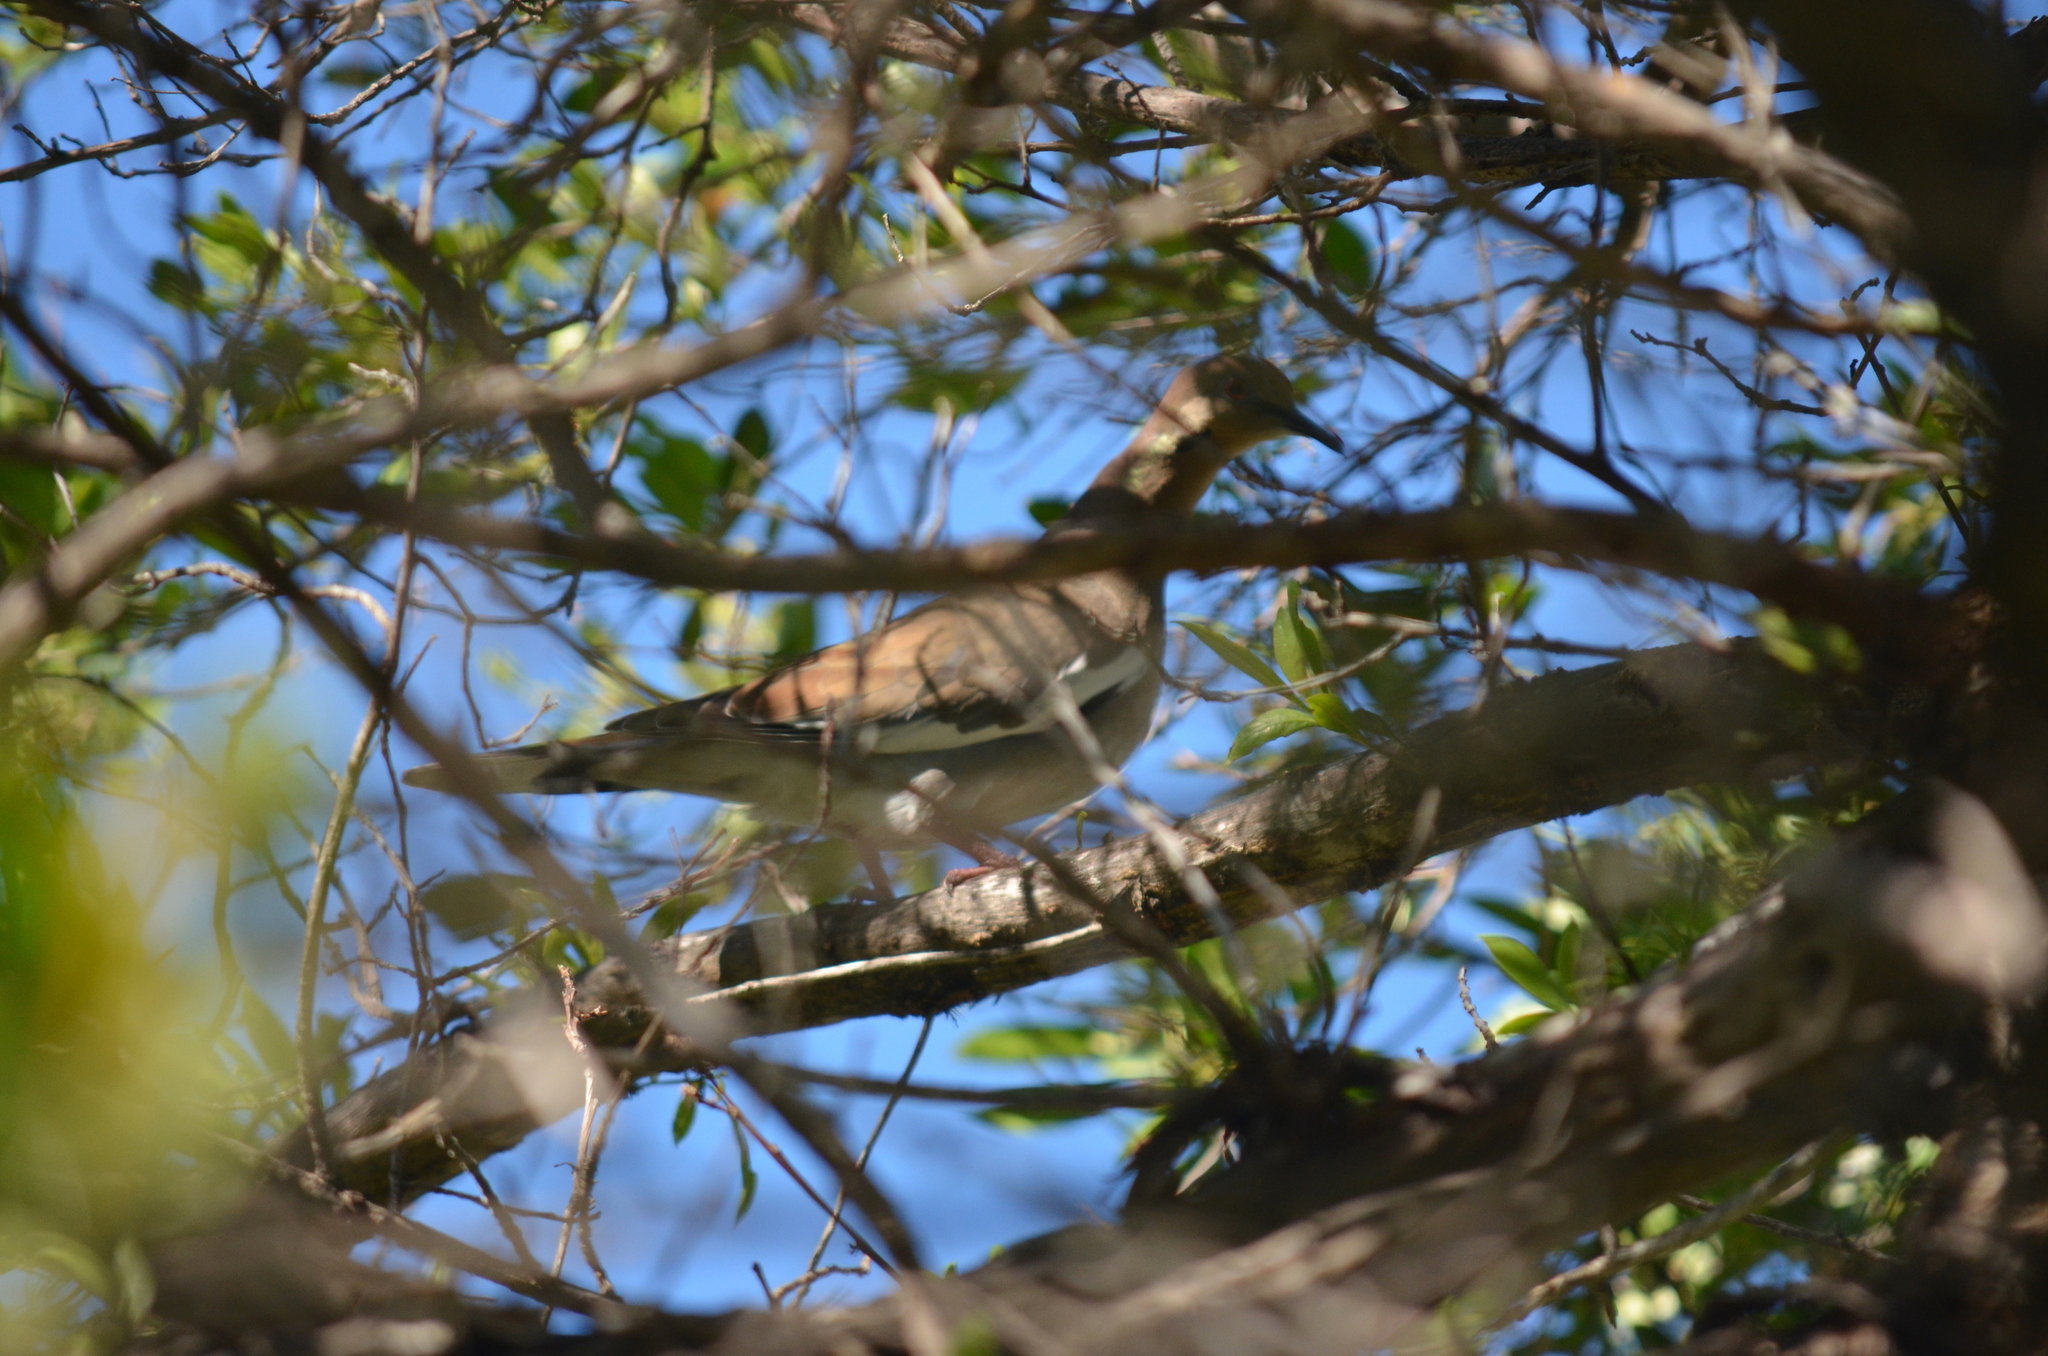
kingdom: Animalia
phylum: Chordata
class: Aves
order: Columbiformes
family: Columbidae
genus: Zenaida
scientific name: Zenaida asiatica
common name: White-winged dove
